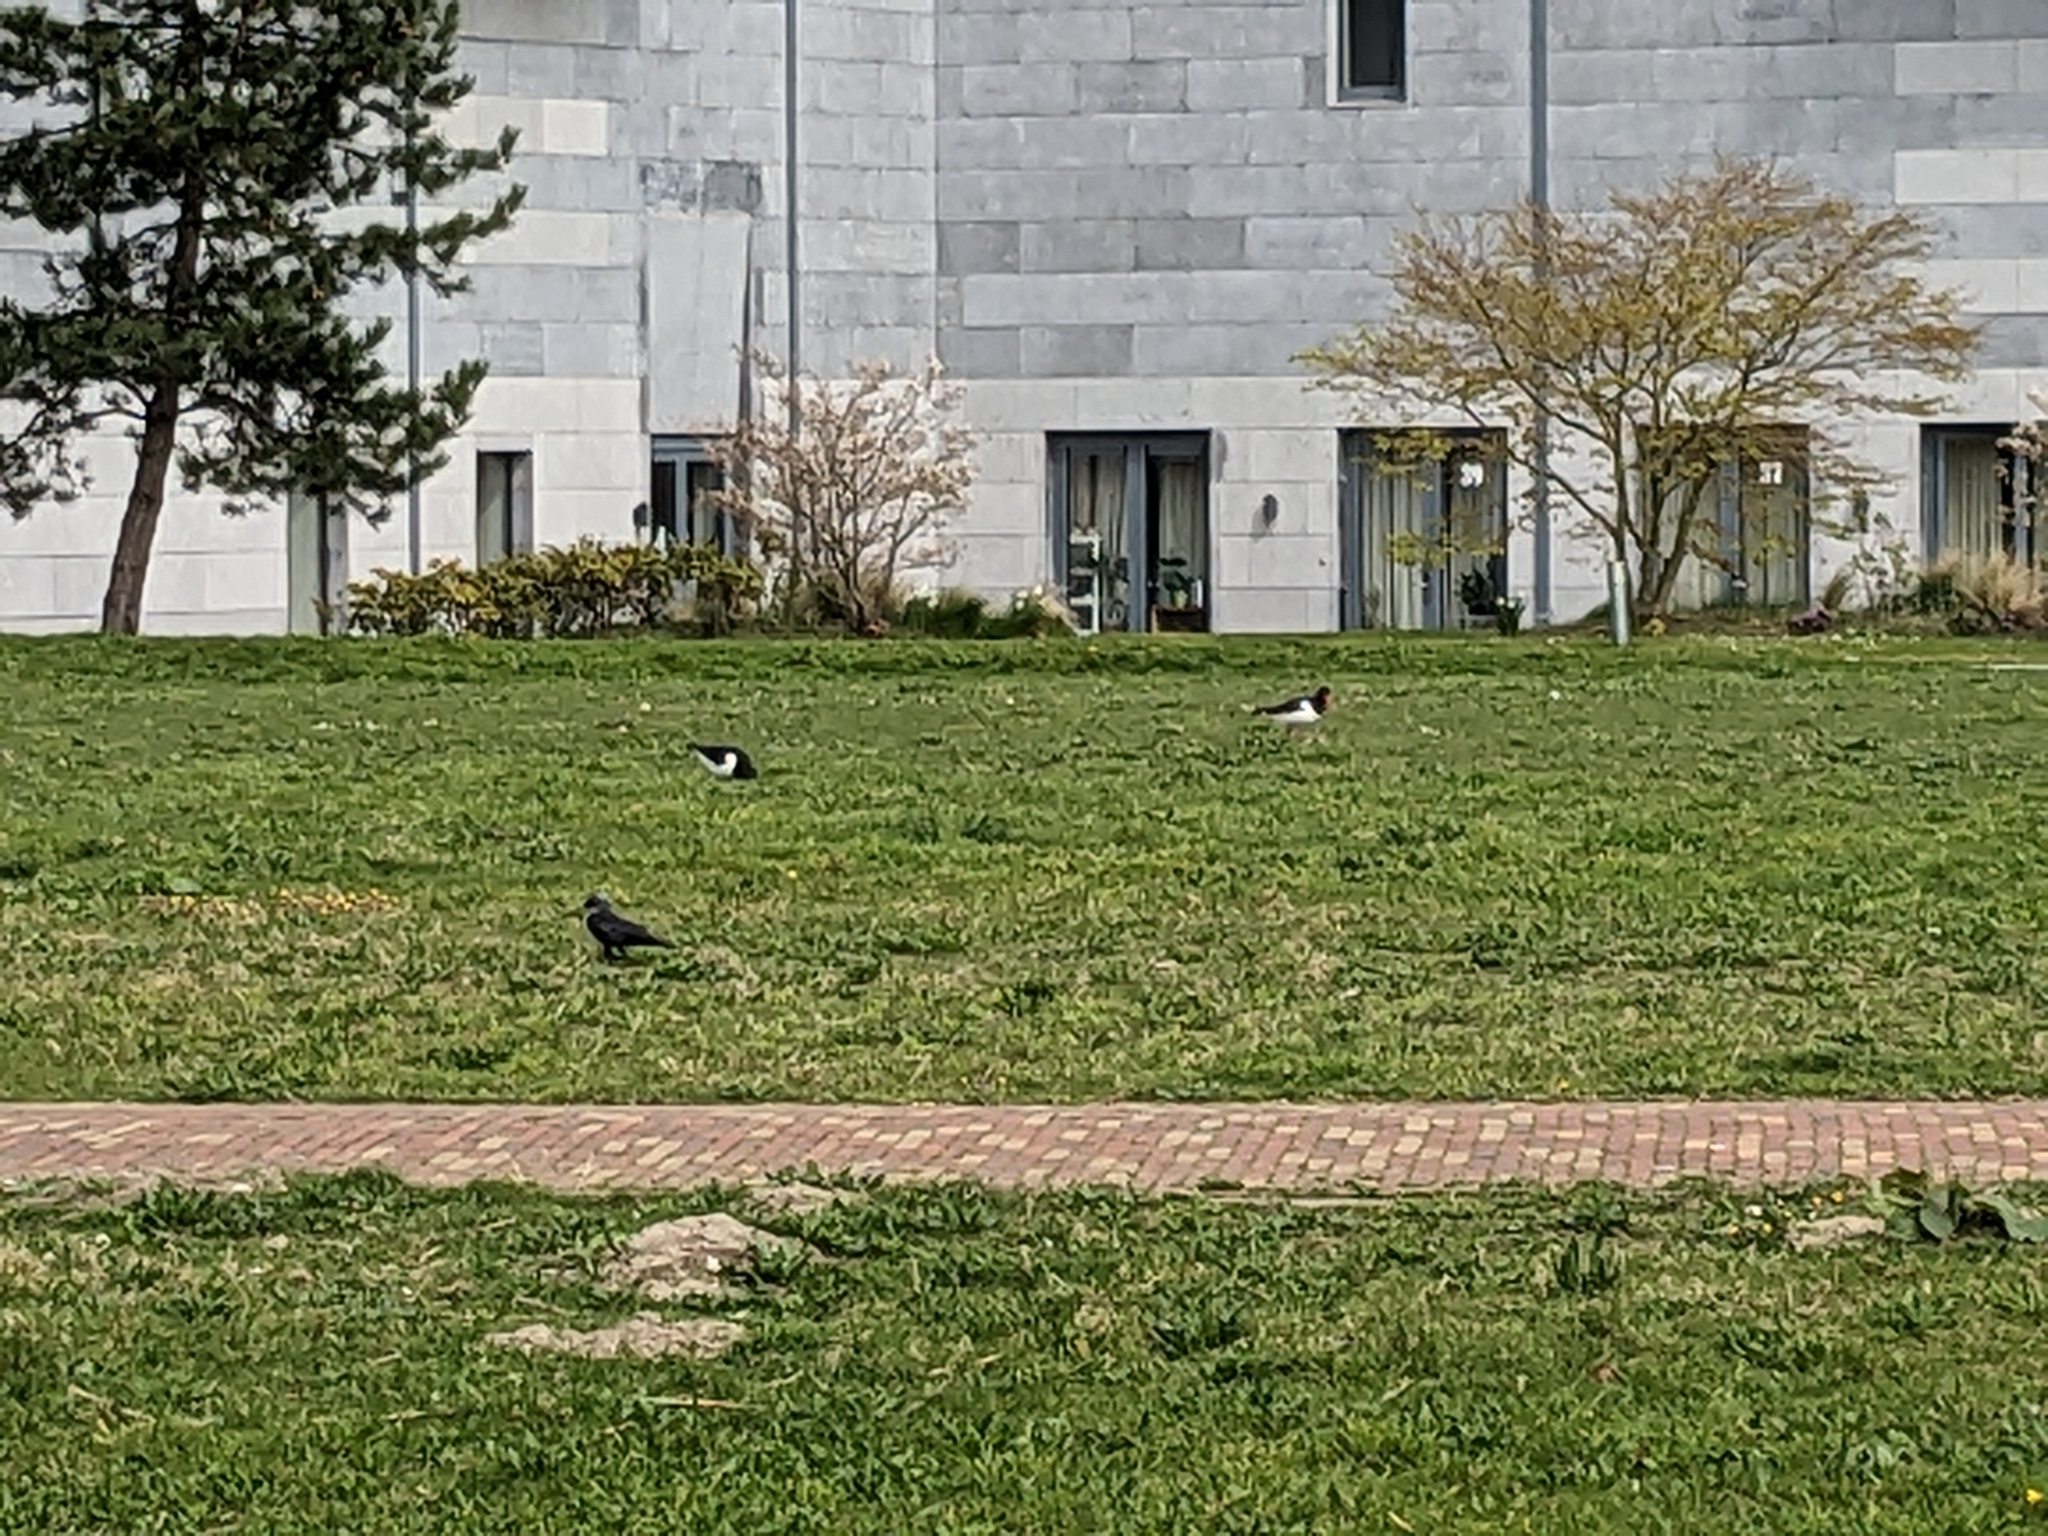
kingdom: Animalia
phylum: Chordata
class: Aves
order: Charadriiformes
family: Haematopodidae
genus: Haematopus
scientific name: Haematopus ostralegus
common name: Eurasian oystercatcher
